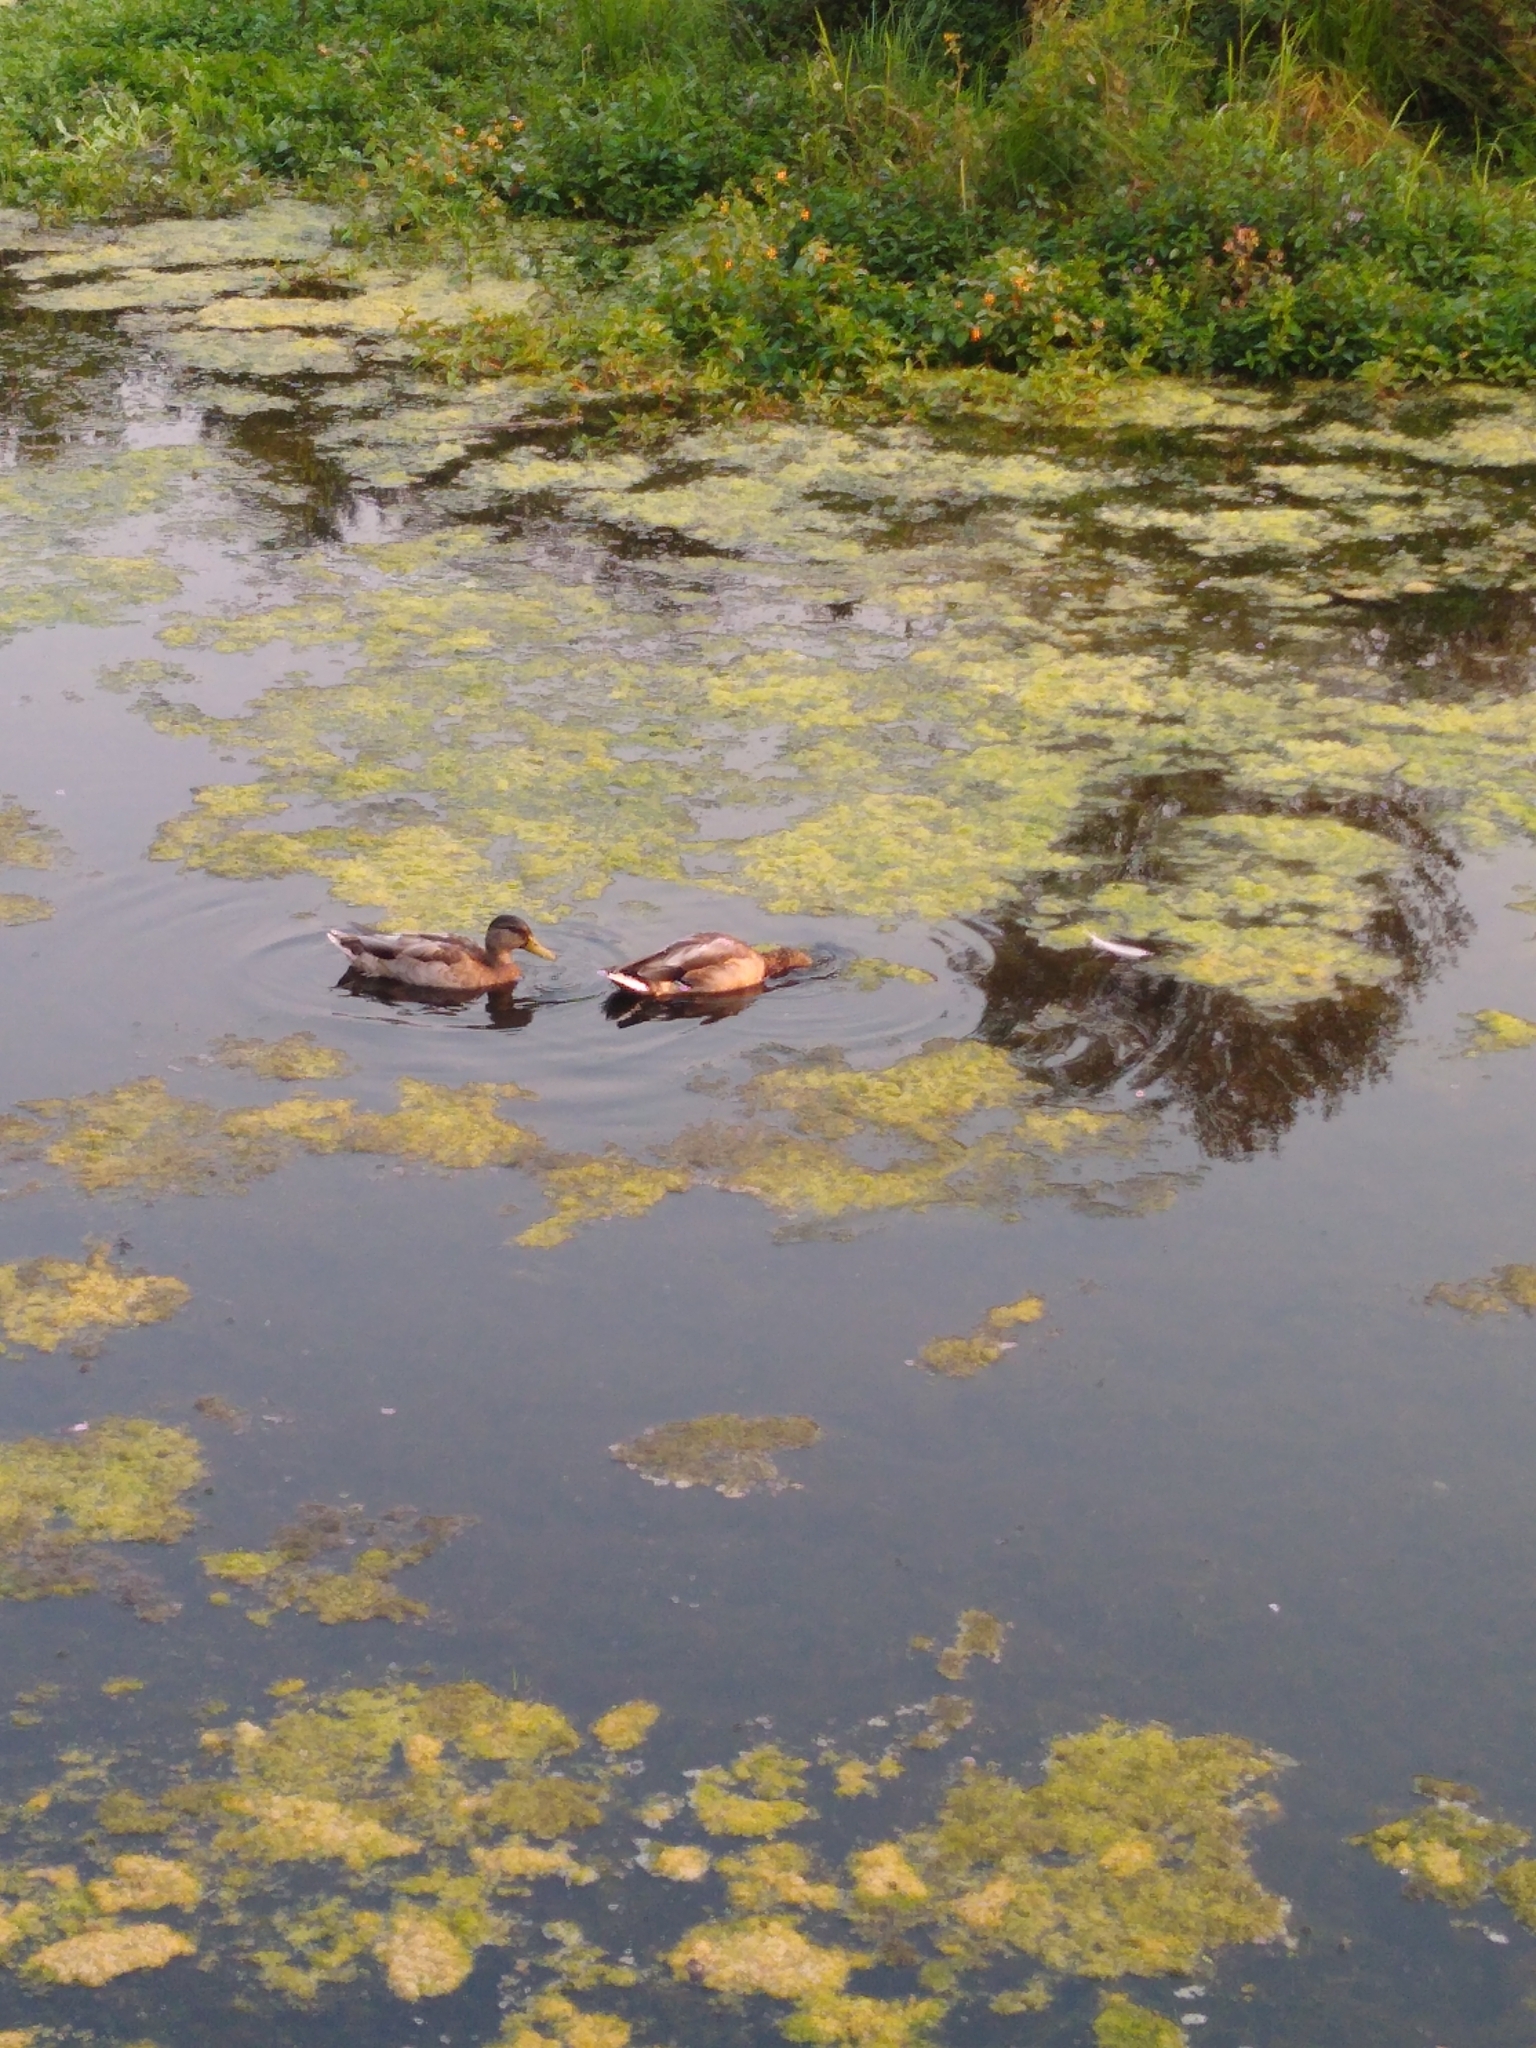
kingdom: Animalia
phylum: Chordata
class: Aves
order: Anseriformes
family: Anatidae
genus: Anas
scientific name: Anas platyrhynchos
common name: Mallard
